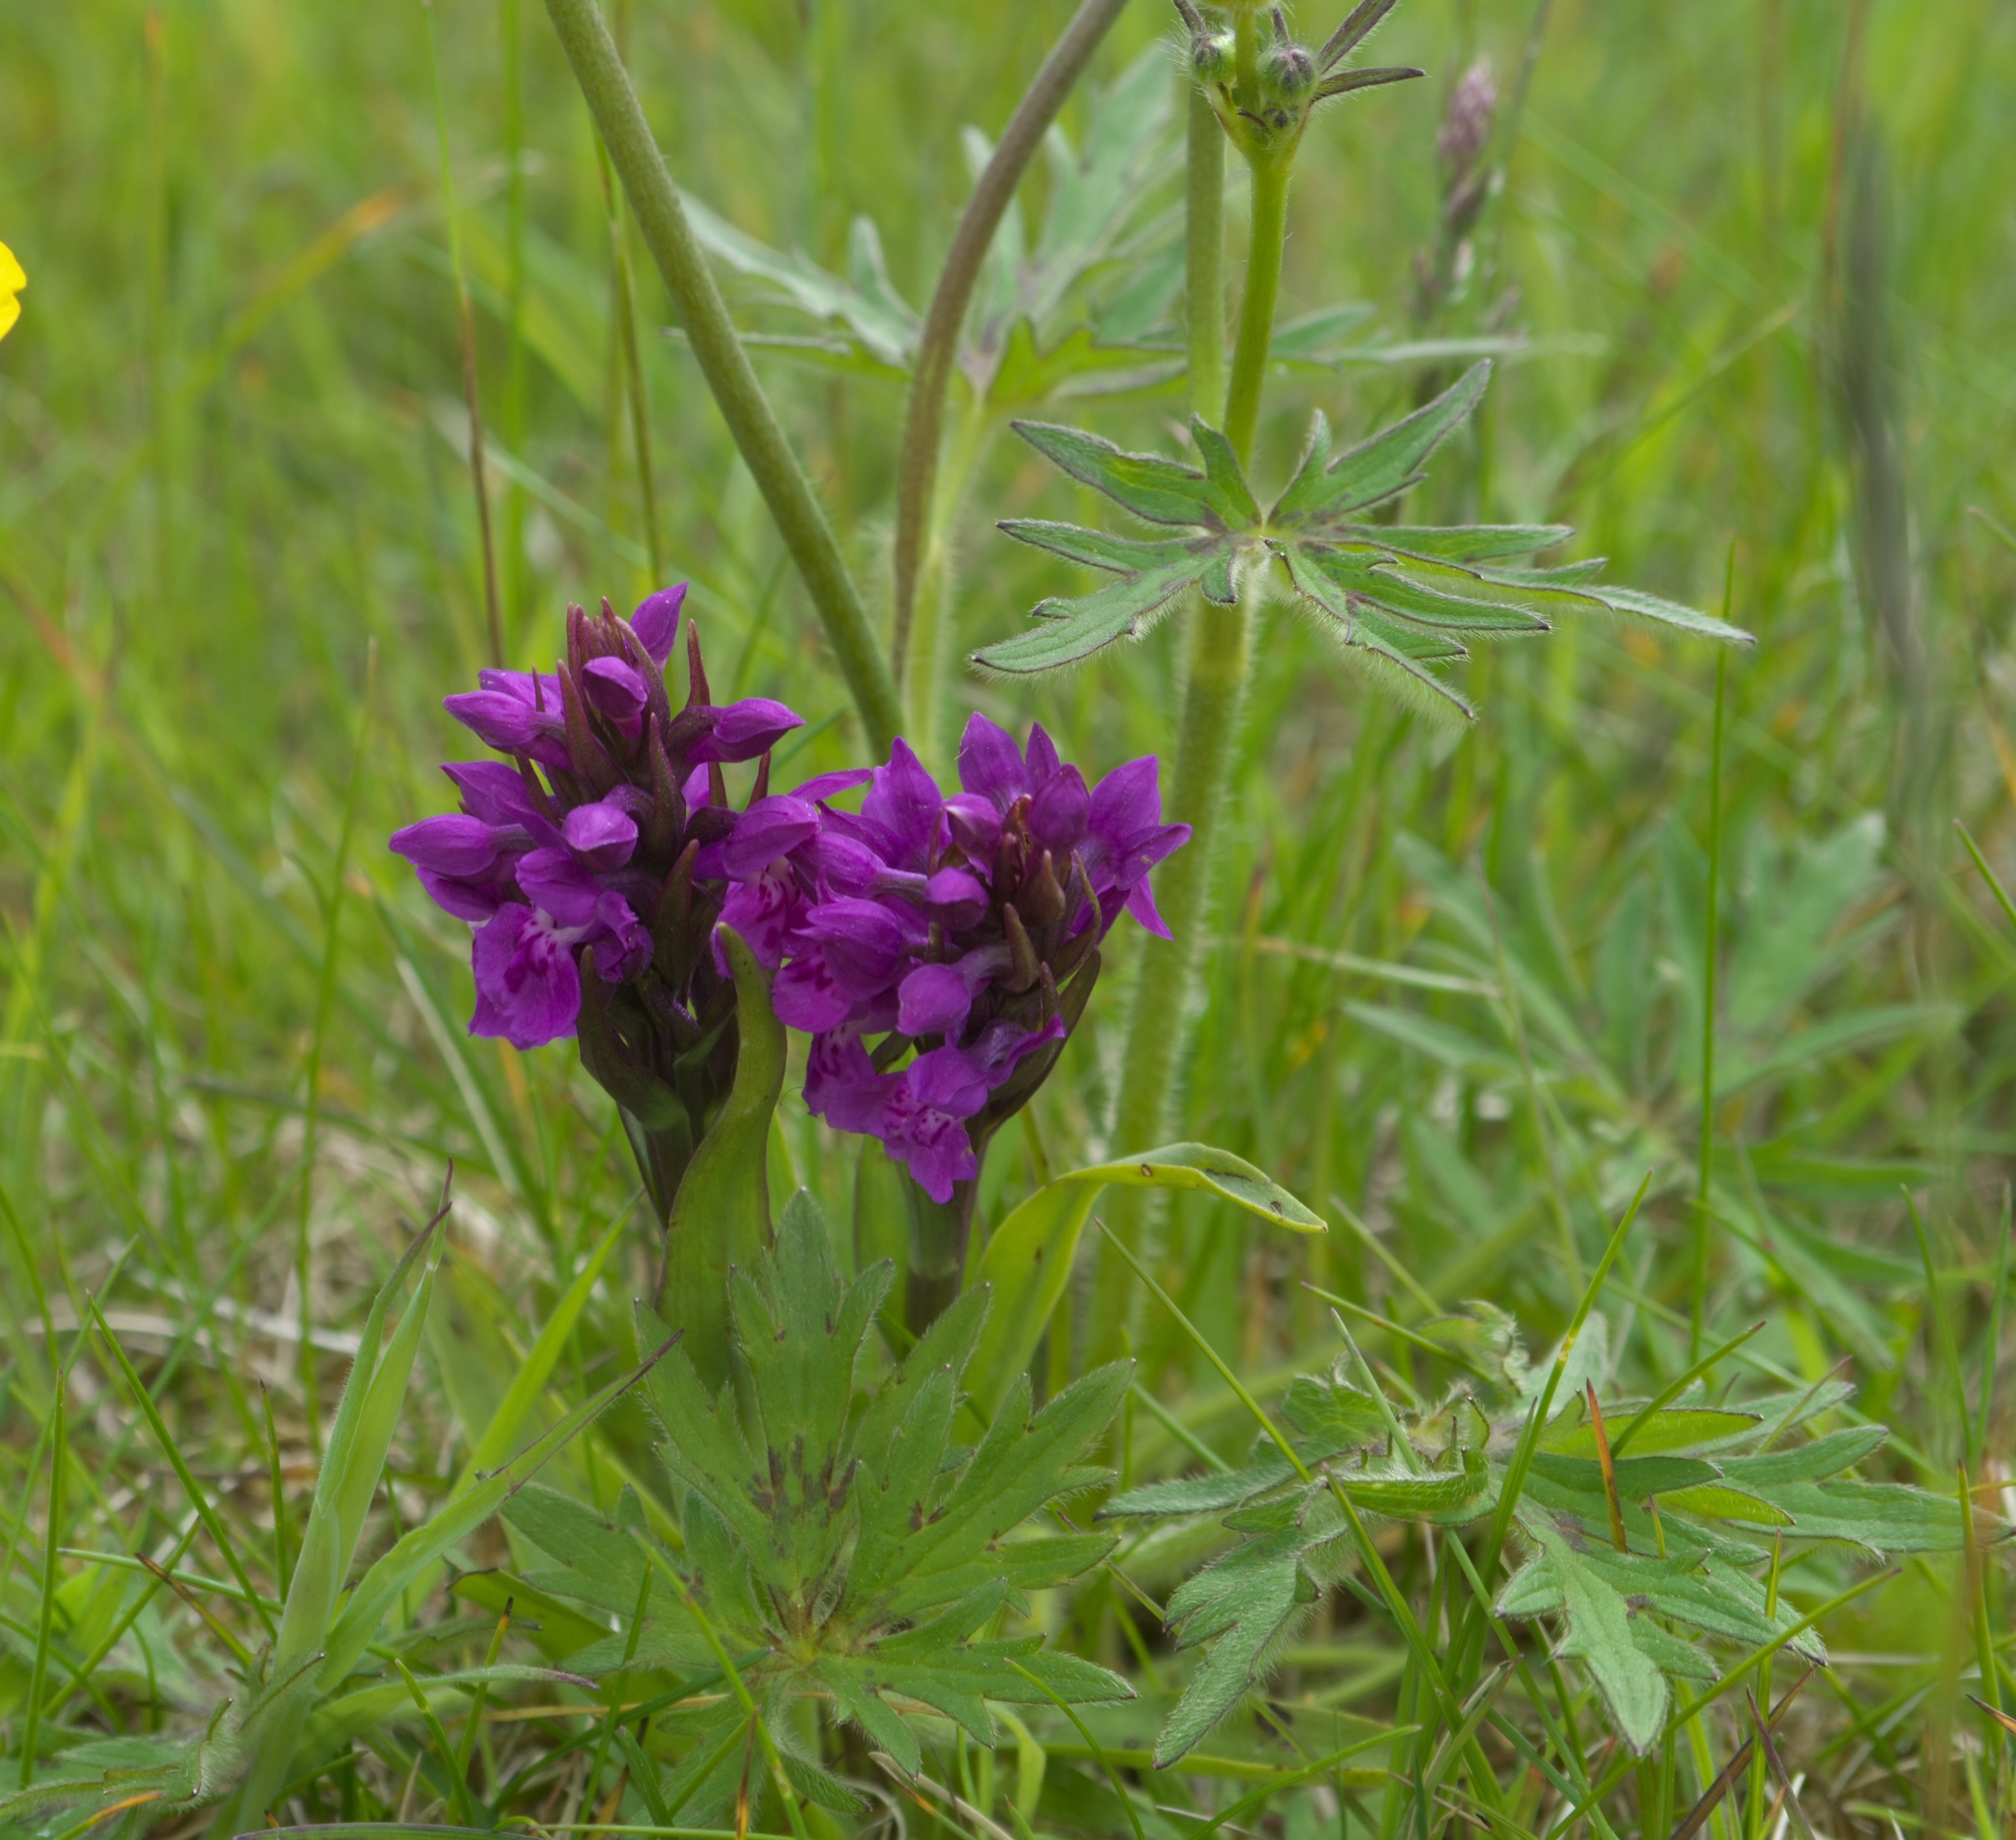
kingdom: Plantae
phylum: Tracheophyta
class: Liliopsida
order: Asparagales
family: Orchidaceae
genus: Dactylorhiza
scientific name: Dactylorhiza majalis
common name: Marsh orchid
